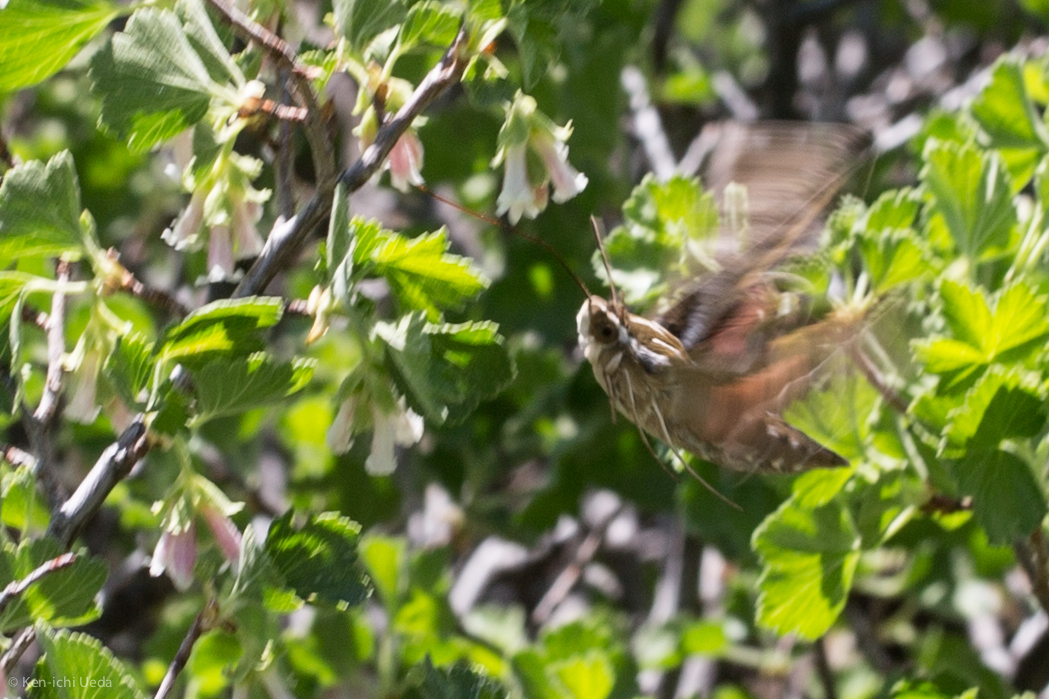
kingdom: Animalia
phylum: Arthropoda
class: Insecta
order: Lepidoptera
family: Sphingidae
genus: Hyles
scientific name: Hyles lineata
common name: White-lined sphinx
